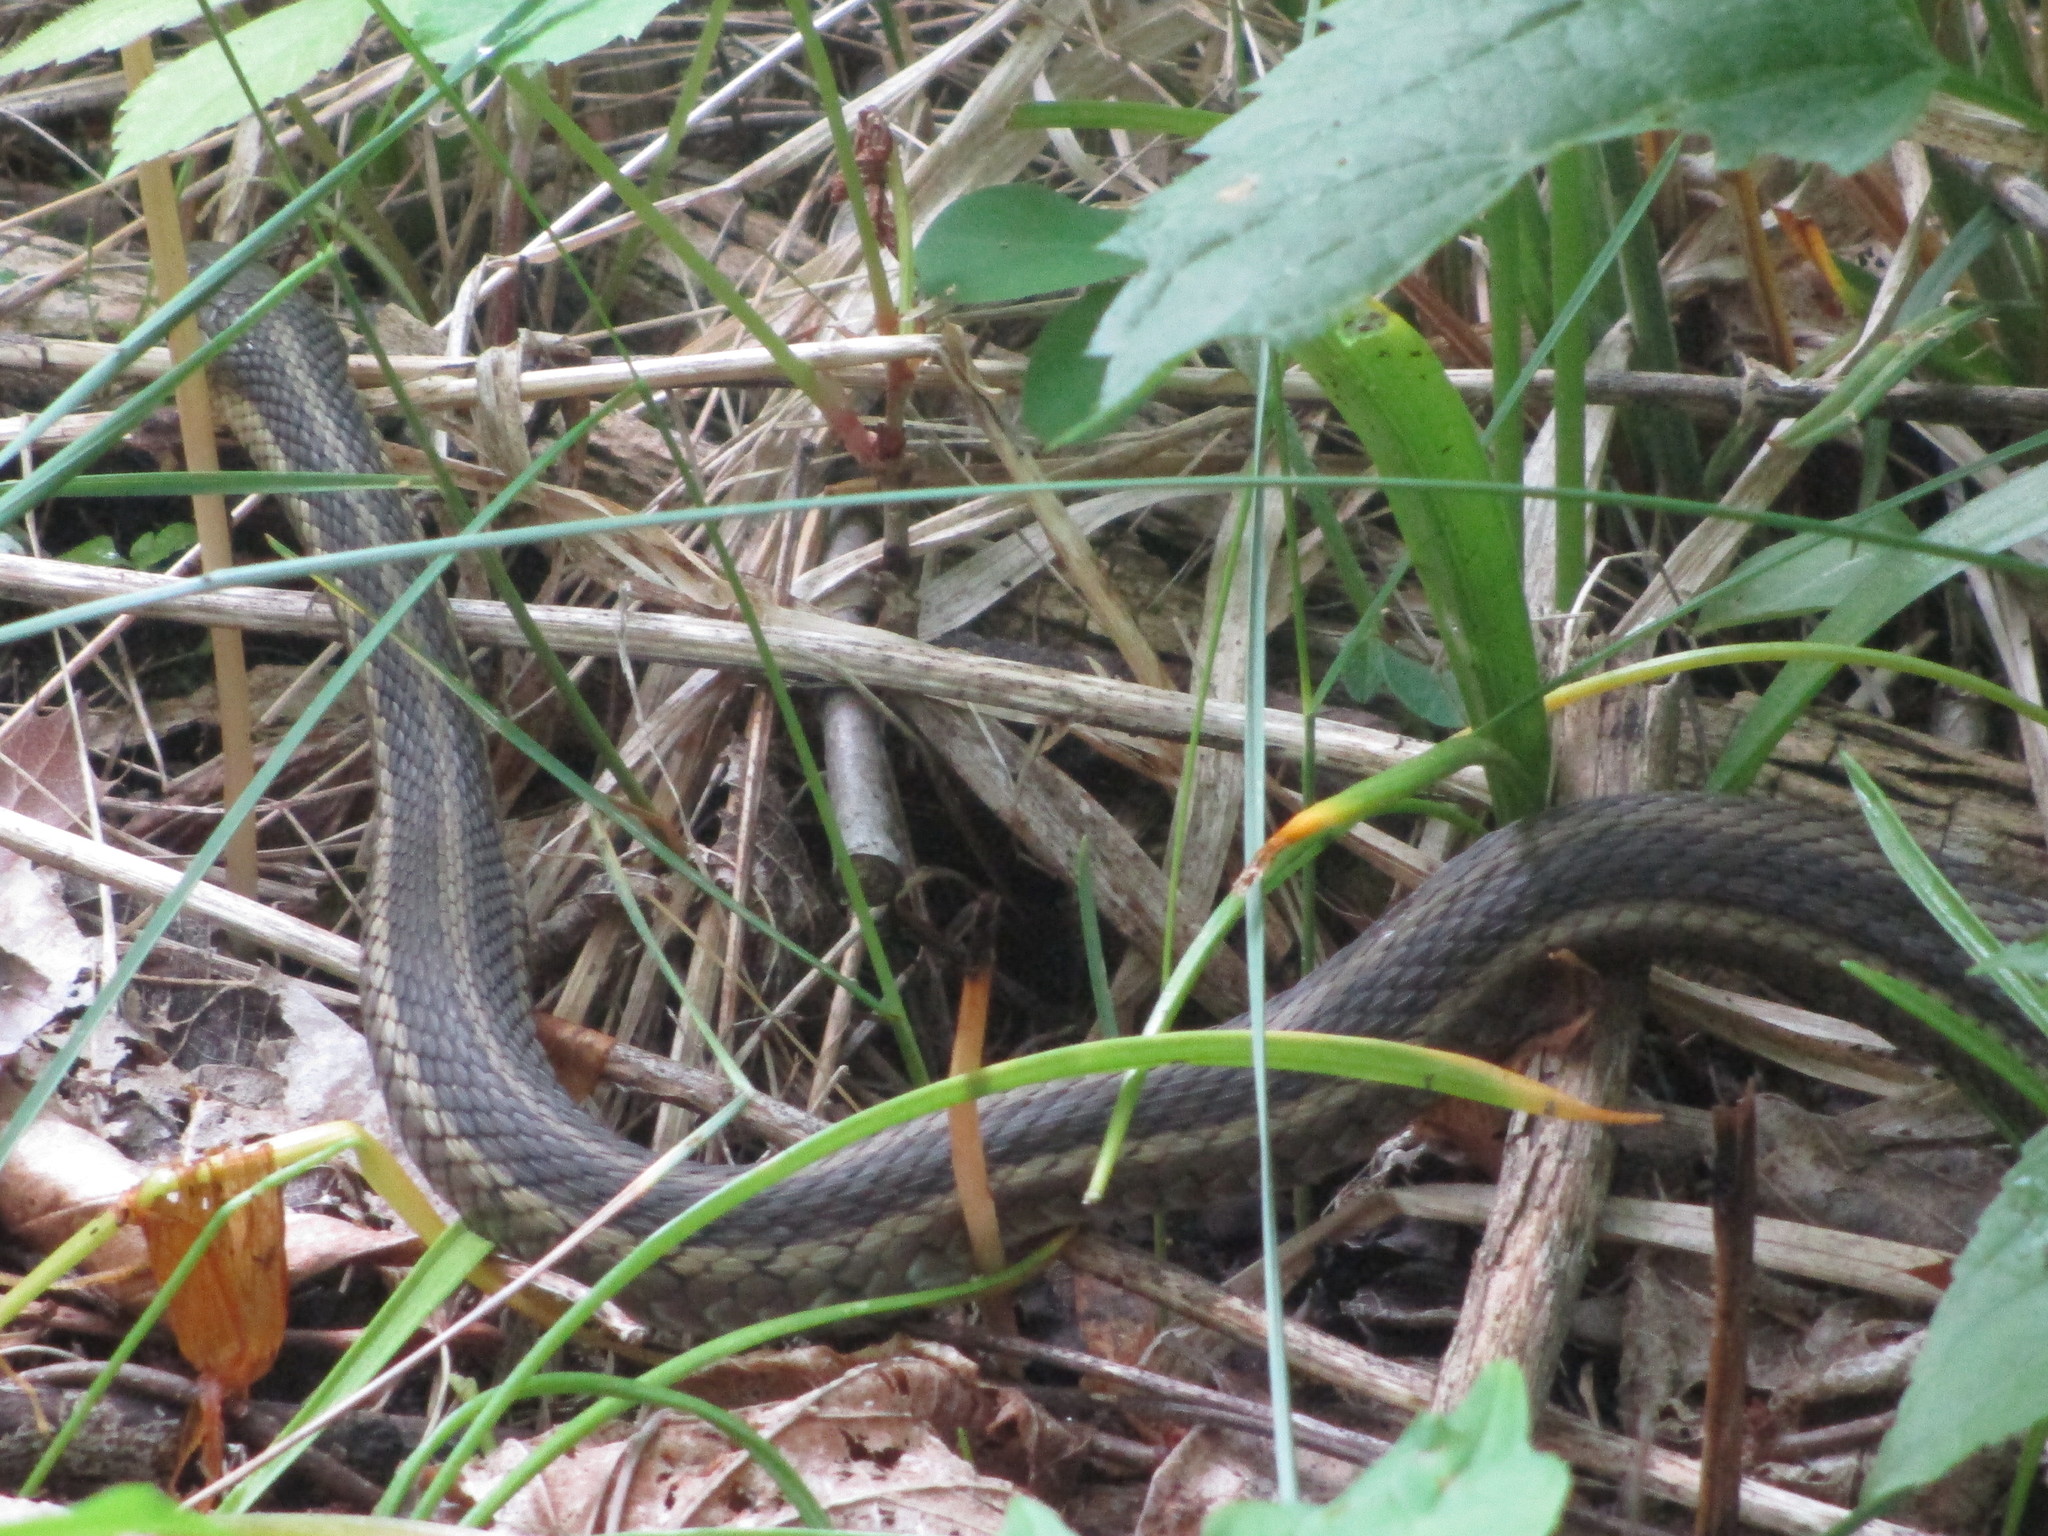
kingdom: Animalia
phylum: Chordata
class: Squamata
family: Colubridae
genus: Thamnophis
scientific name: Thamnophis sirtalis
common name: Common garter snake
